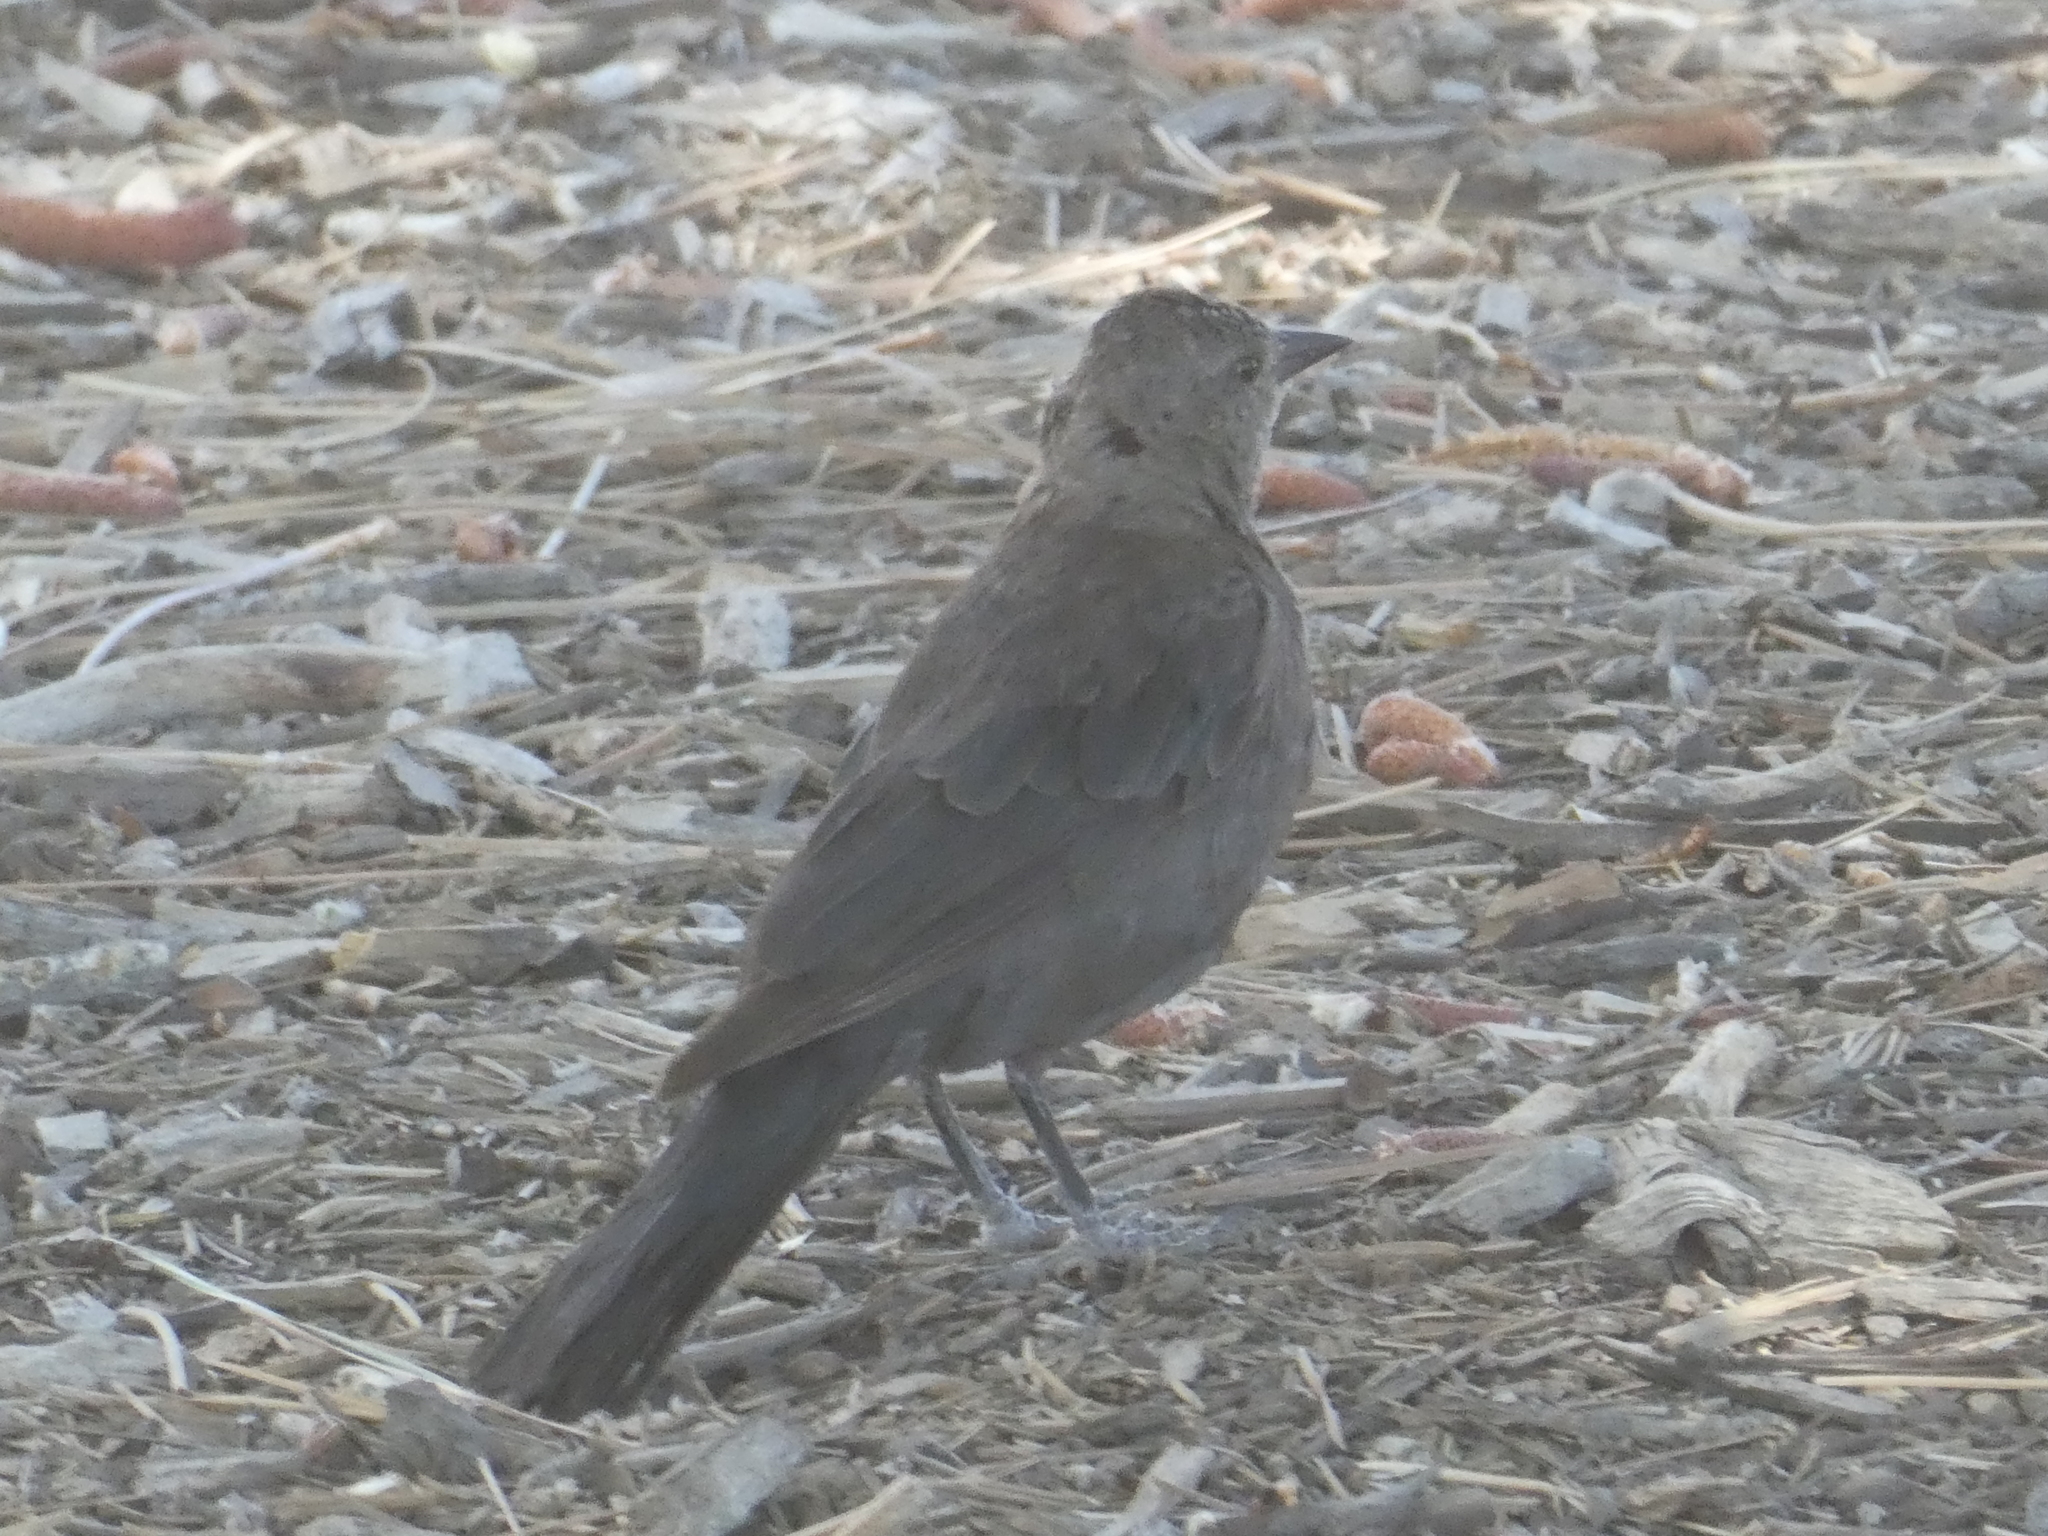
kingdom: Animalia
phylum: Chordata
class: Aves
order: Passeriformes
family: Icteridae
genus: Euphagus
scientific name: Euphagus cyanocephalus
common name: Brewer's blackbird
